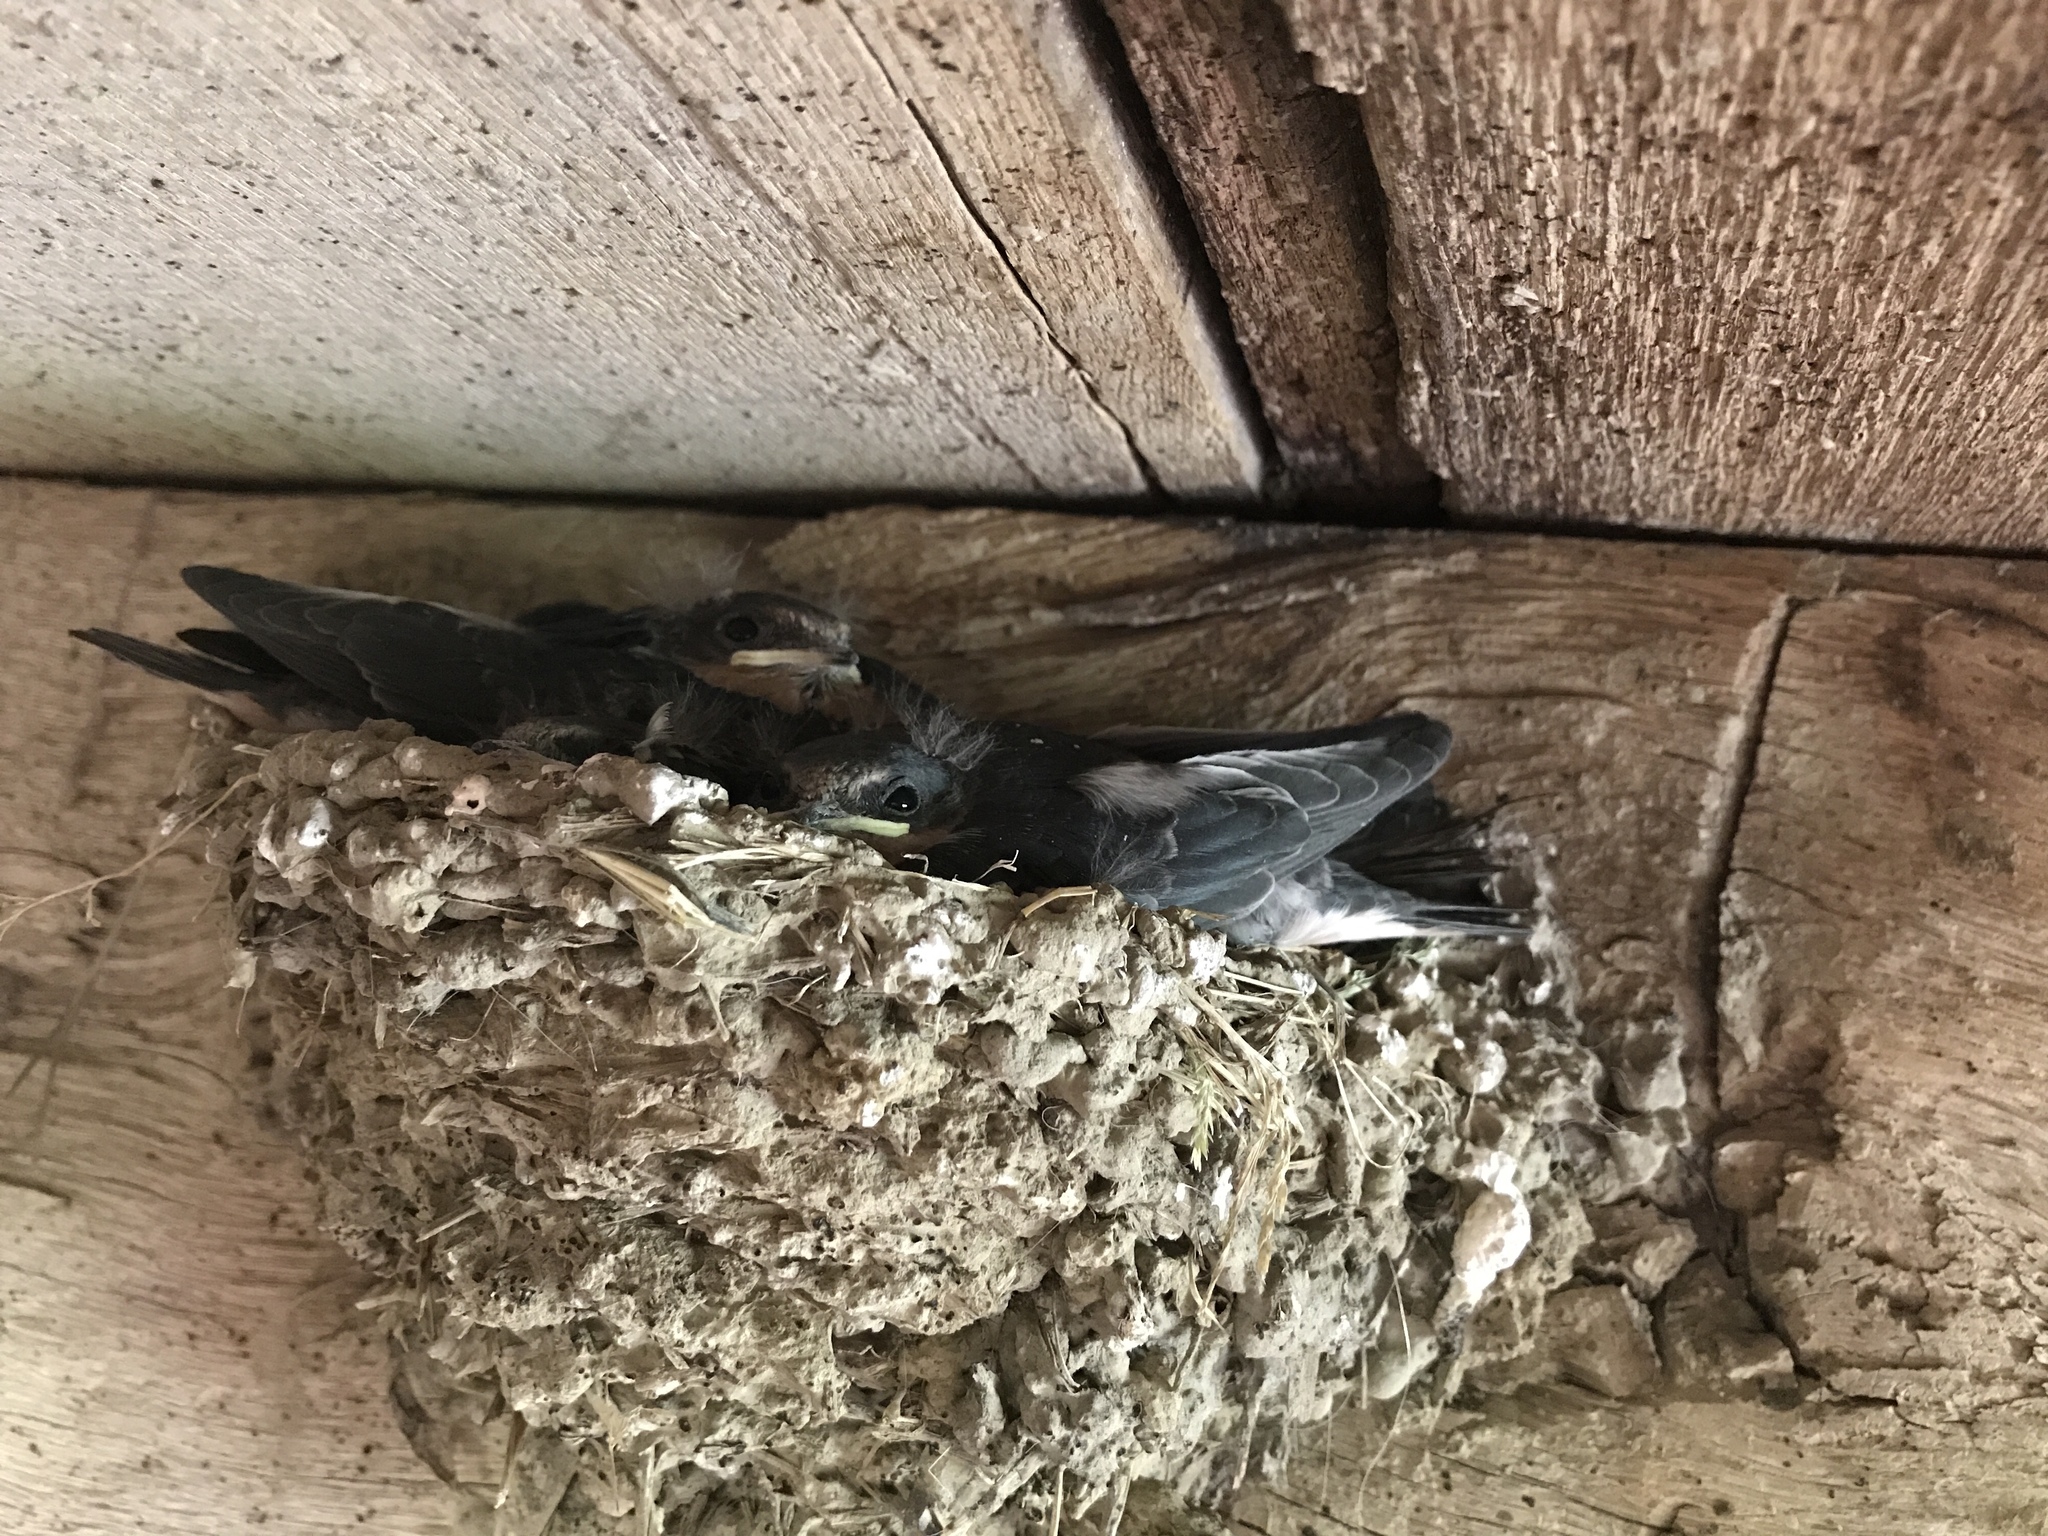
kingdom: Animalia
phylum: Chordata
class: Aves
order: Passeriformes
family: Hirundinidae
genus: Hirundo
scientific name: Hirundo rustica
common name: Barn swallow
